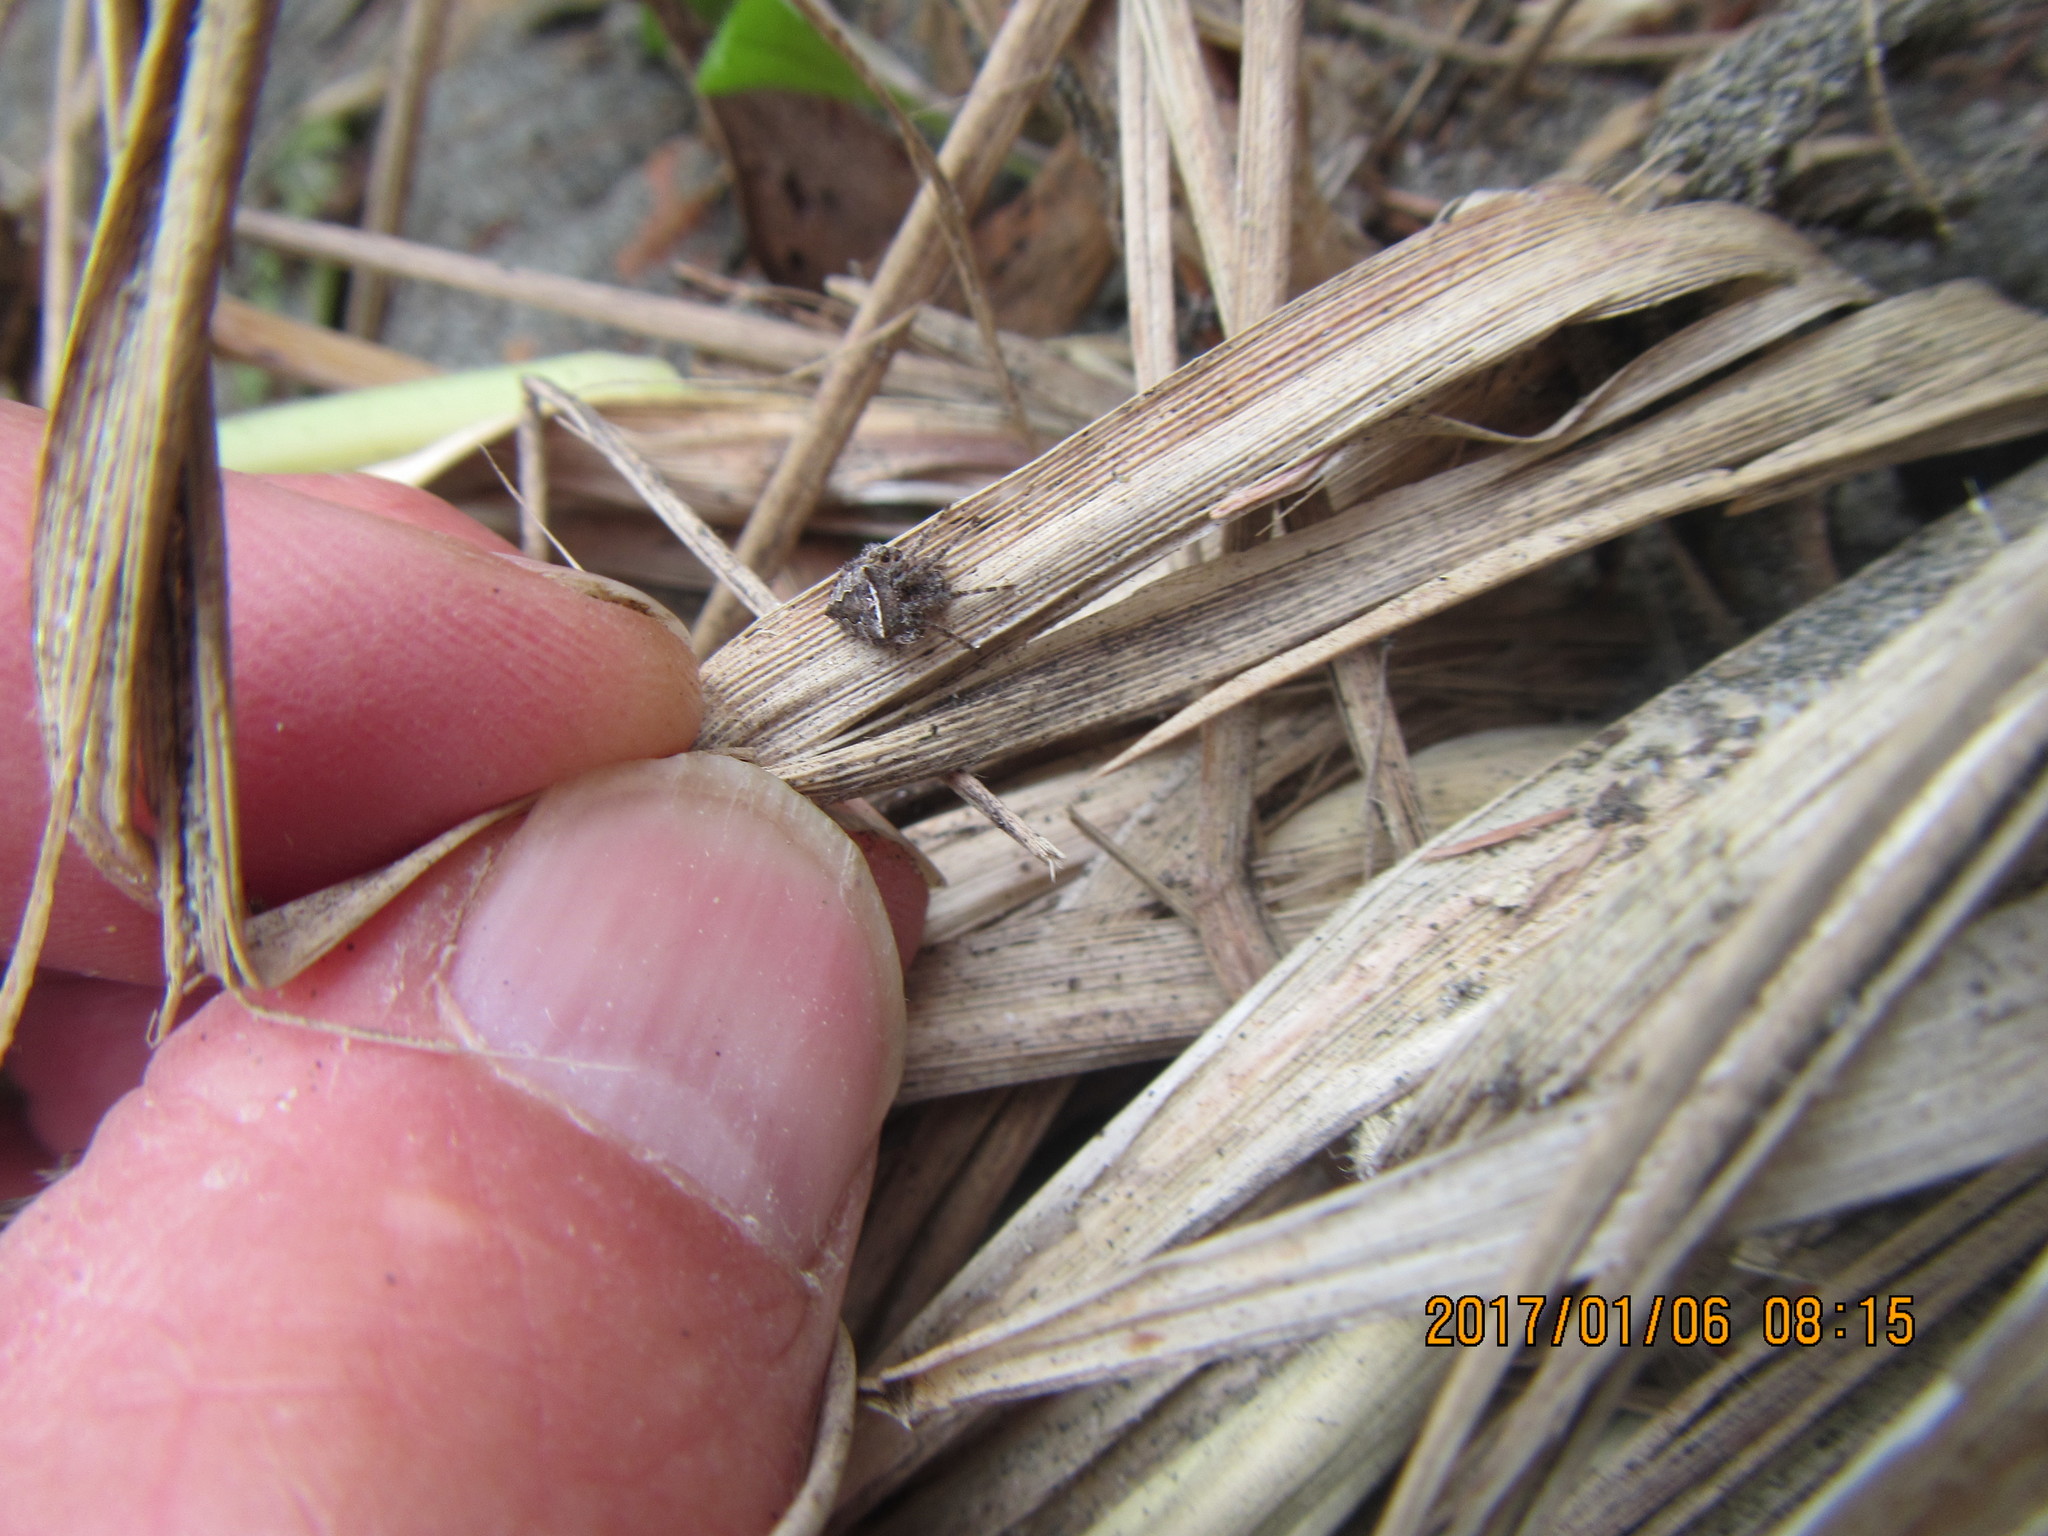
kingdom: Animalia
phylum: Arthropoda
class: Arachnida
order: Araneae
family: Araneidae
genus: Novakiella
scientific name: Novakiella trituberculosa
